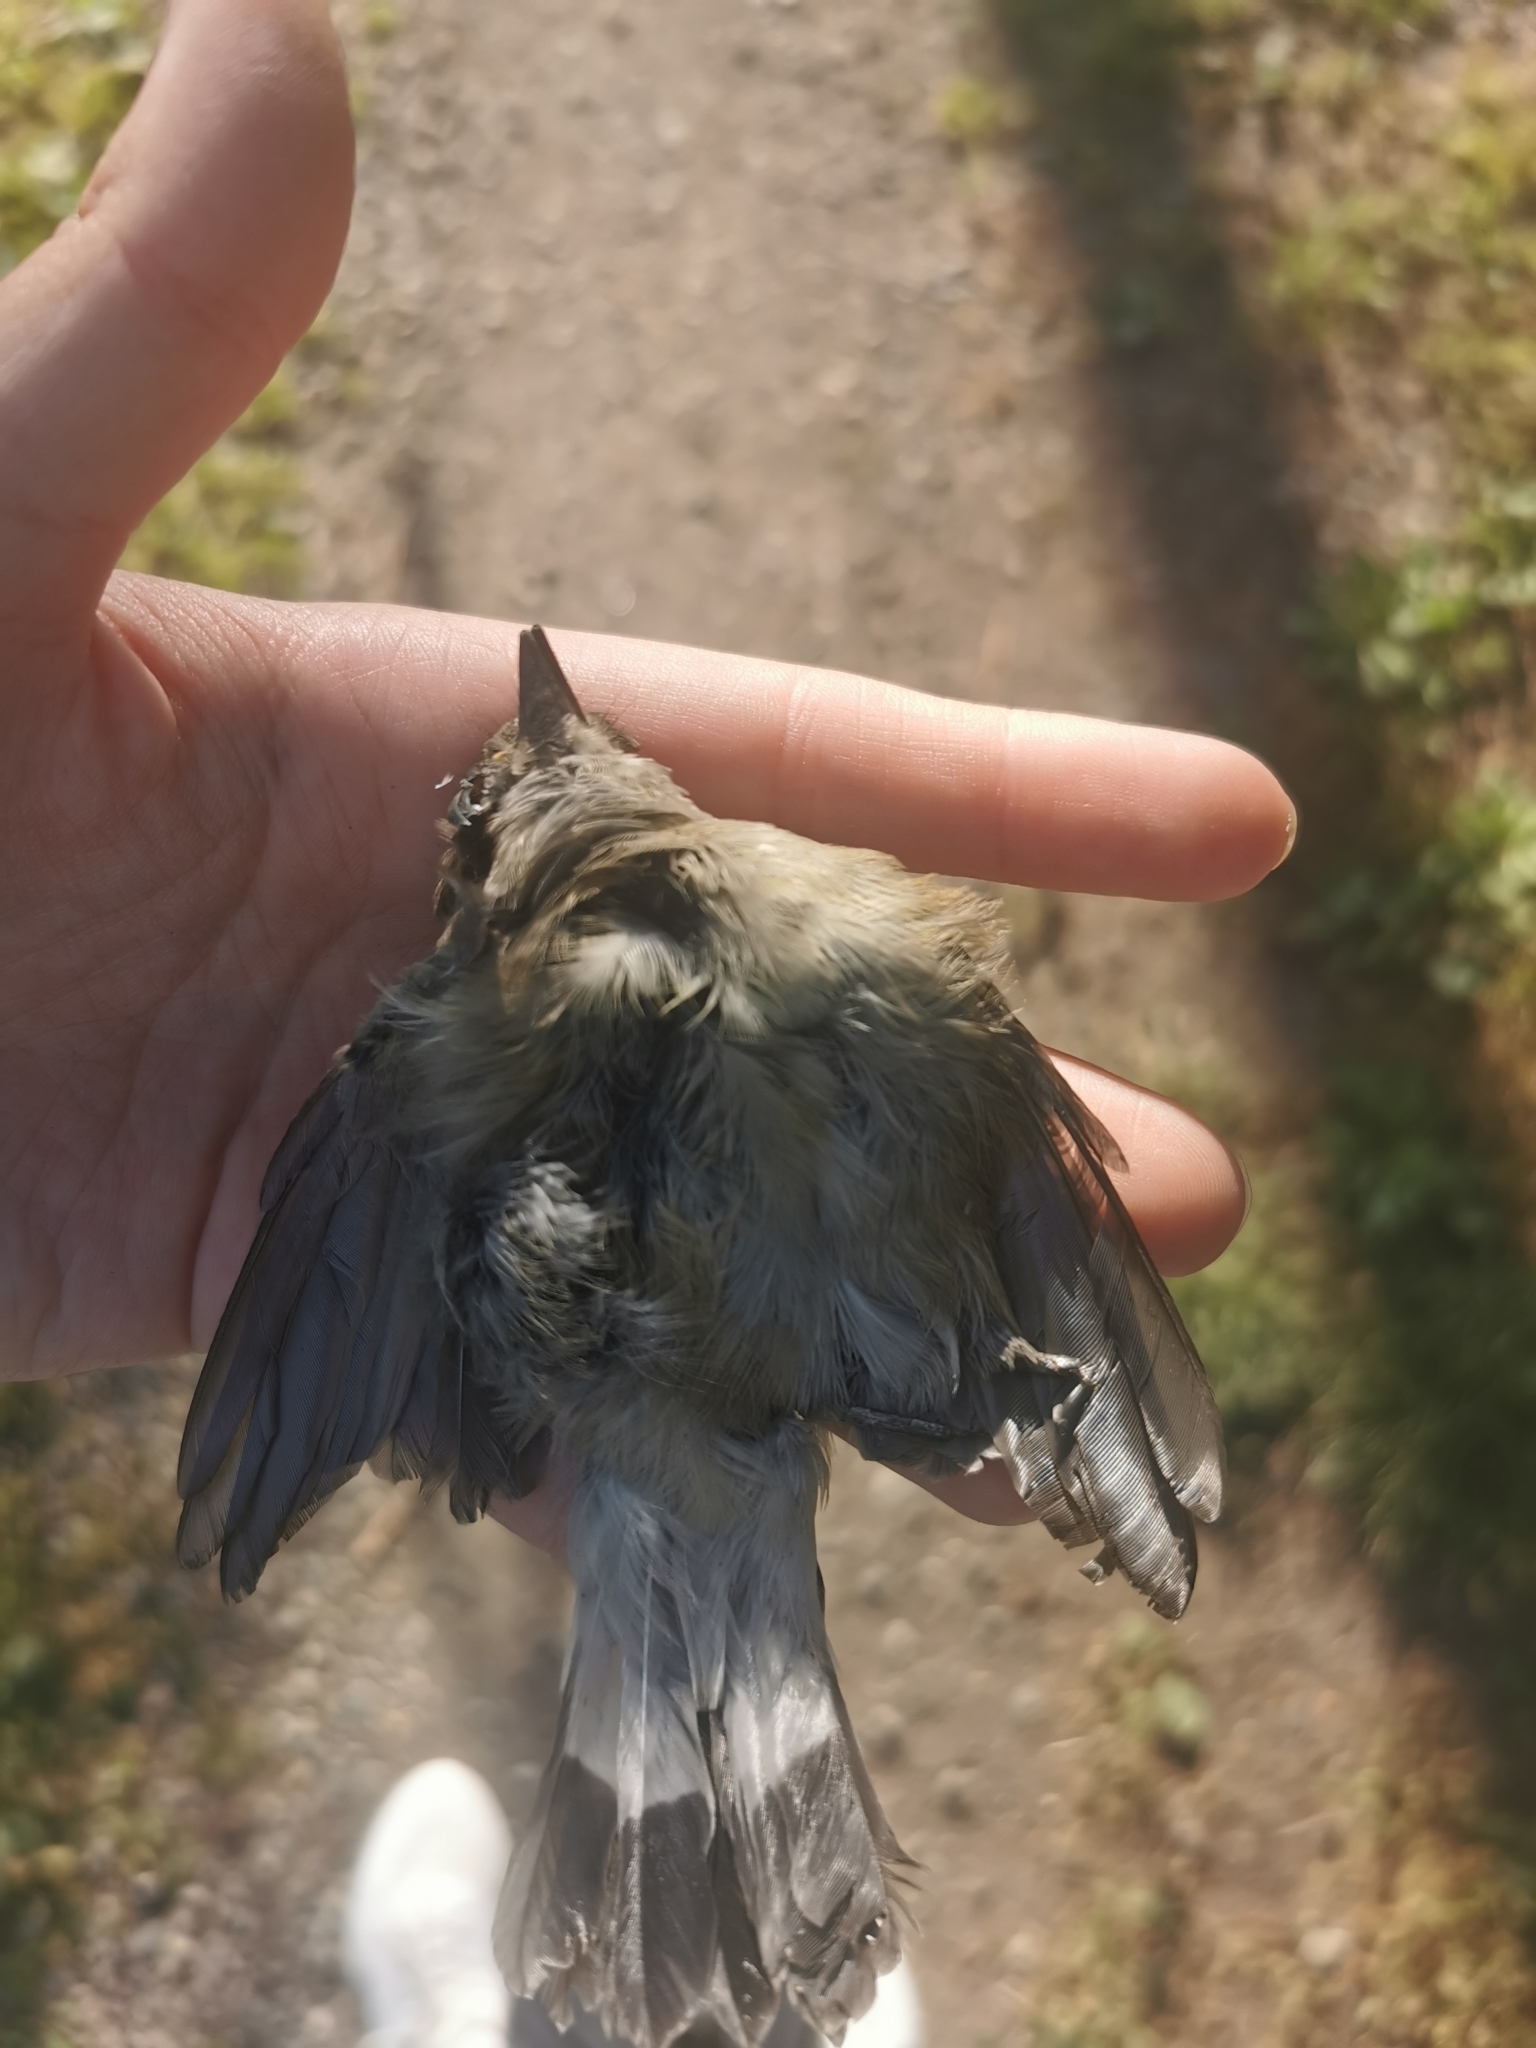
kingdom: Animalia
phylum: Chordata
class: Aves
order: Passeriformes
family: Muscicapidae
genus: Ficedula
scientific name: Ficedula albicilla
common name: Taiga flycatcher
